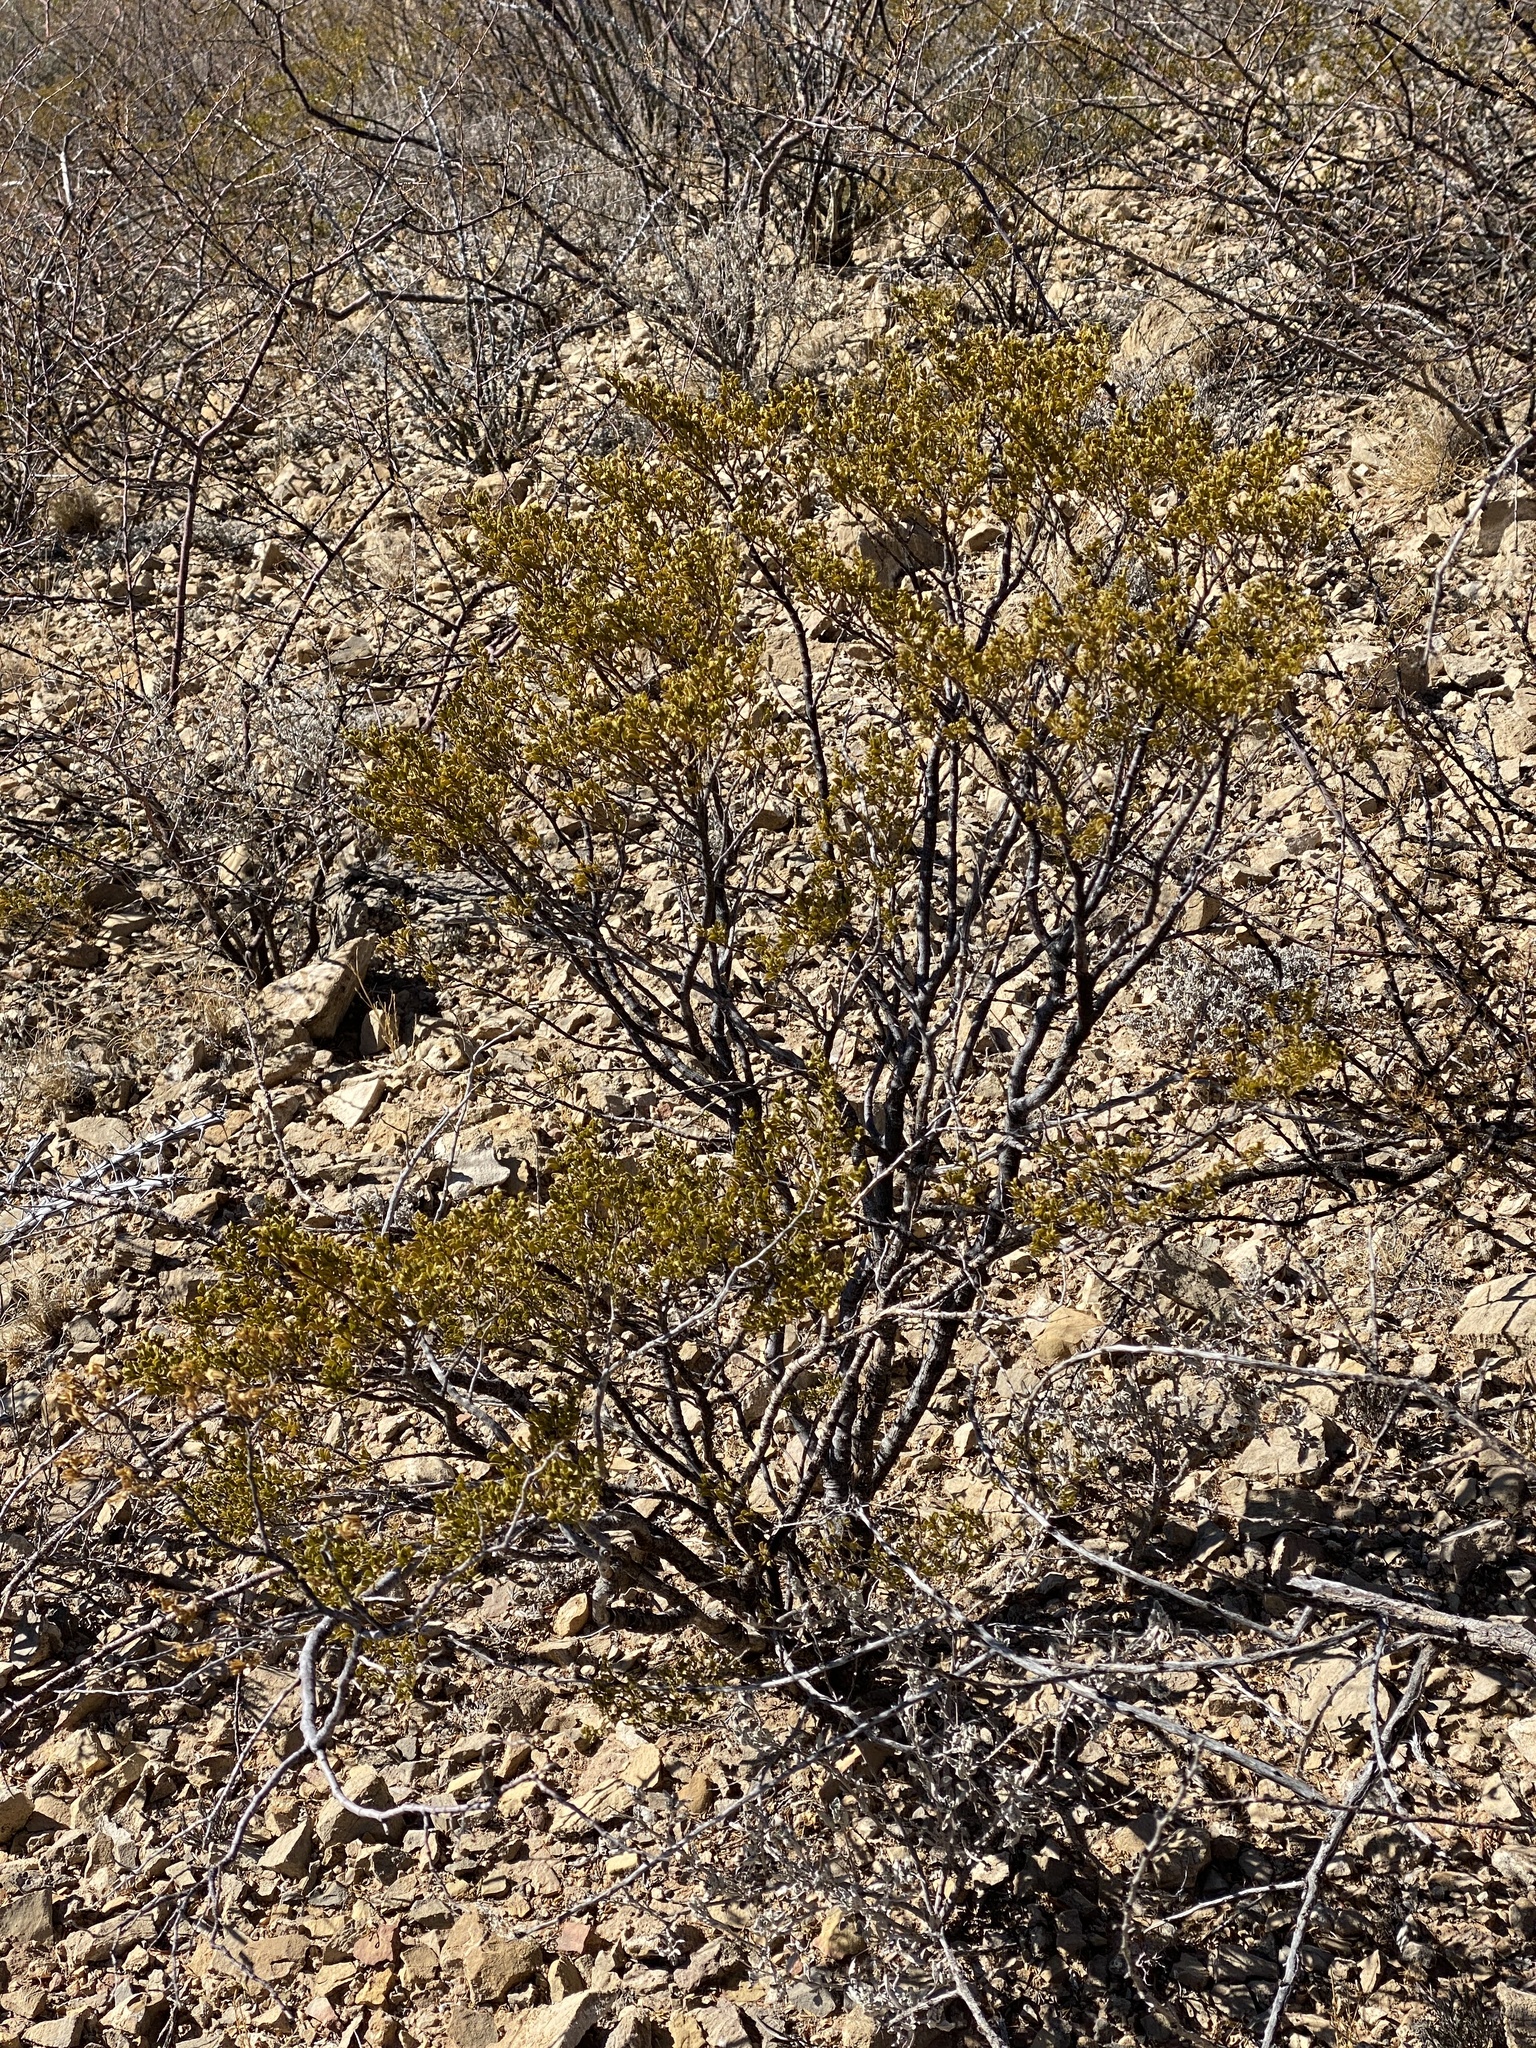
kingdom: Plantae
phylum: Tracheophyta
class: Magnoliopsida
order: Zygophyllales
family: Zygophyllaceae
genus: Larrea
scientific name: Larrea tridentata
